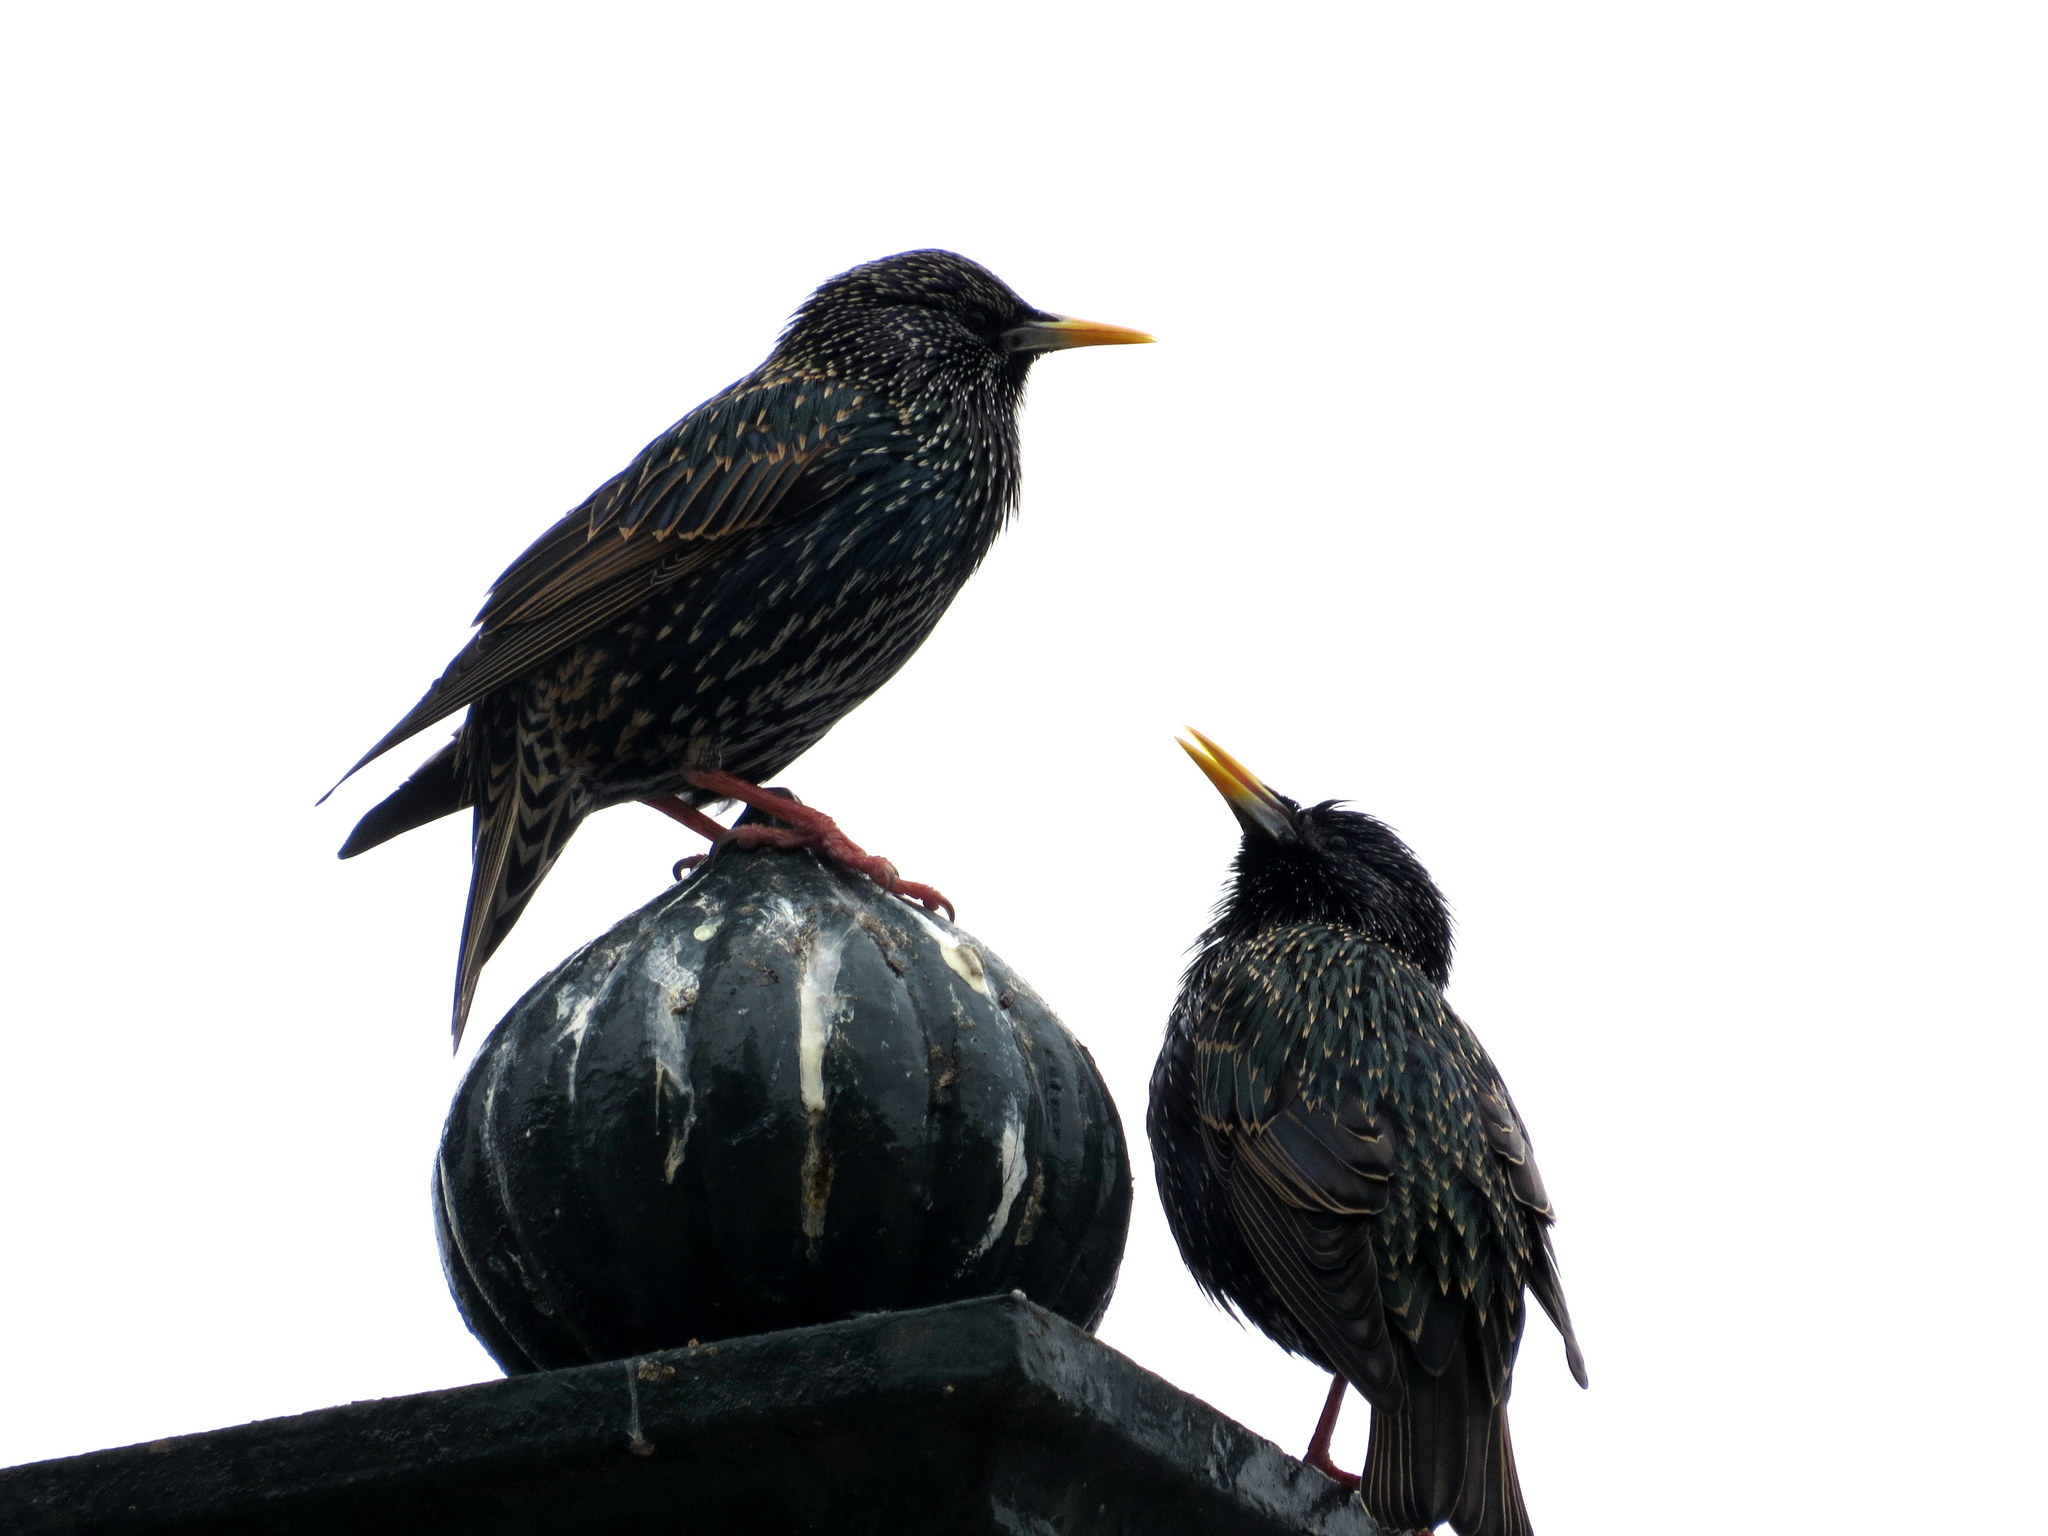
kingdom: Animalia
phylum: Chordata
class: Aves
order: Passeriformes
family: Sturnidae
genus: Sturnus
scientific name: Sturnus vulgaris
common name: Common starling
